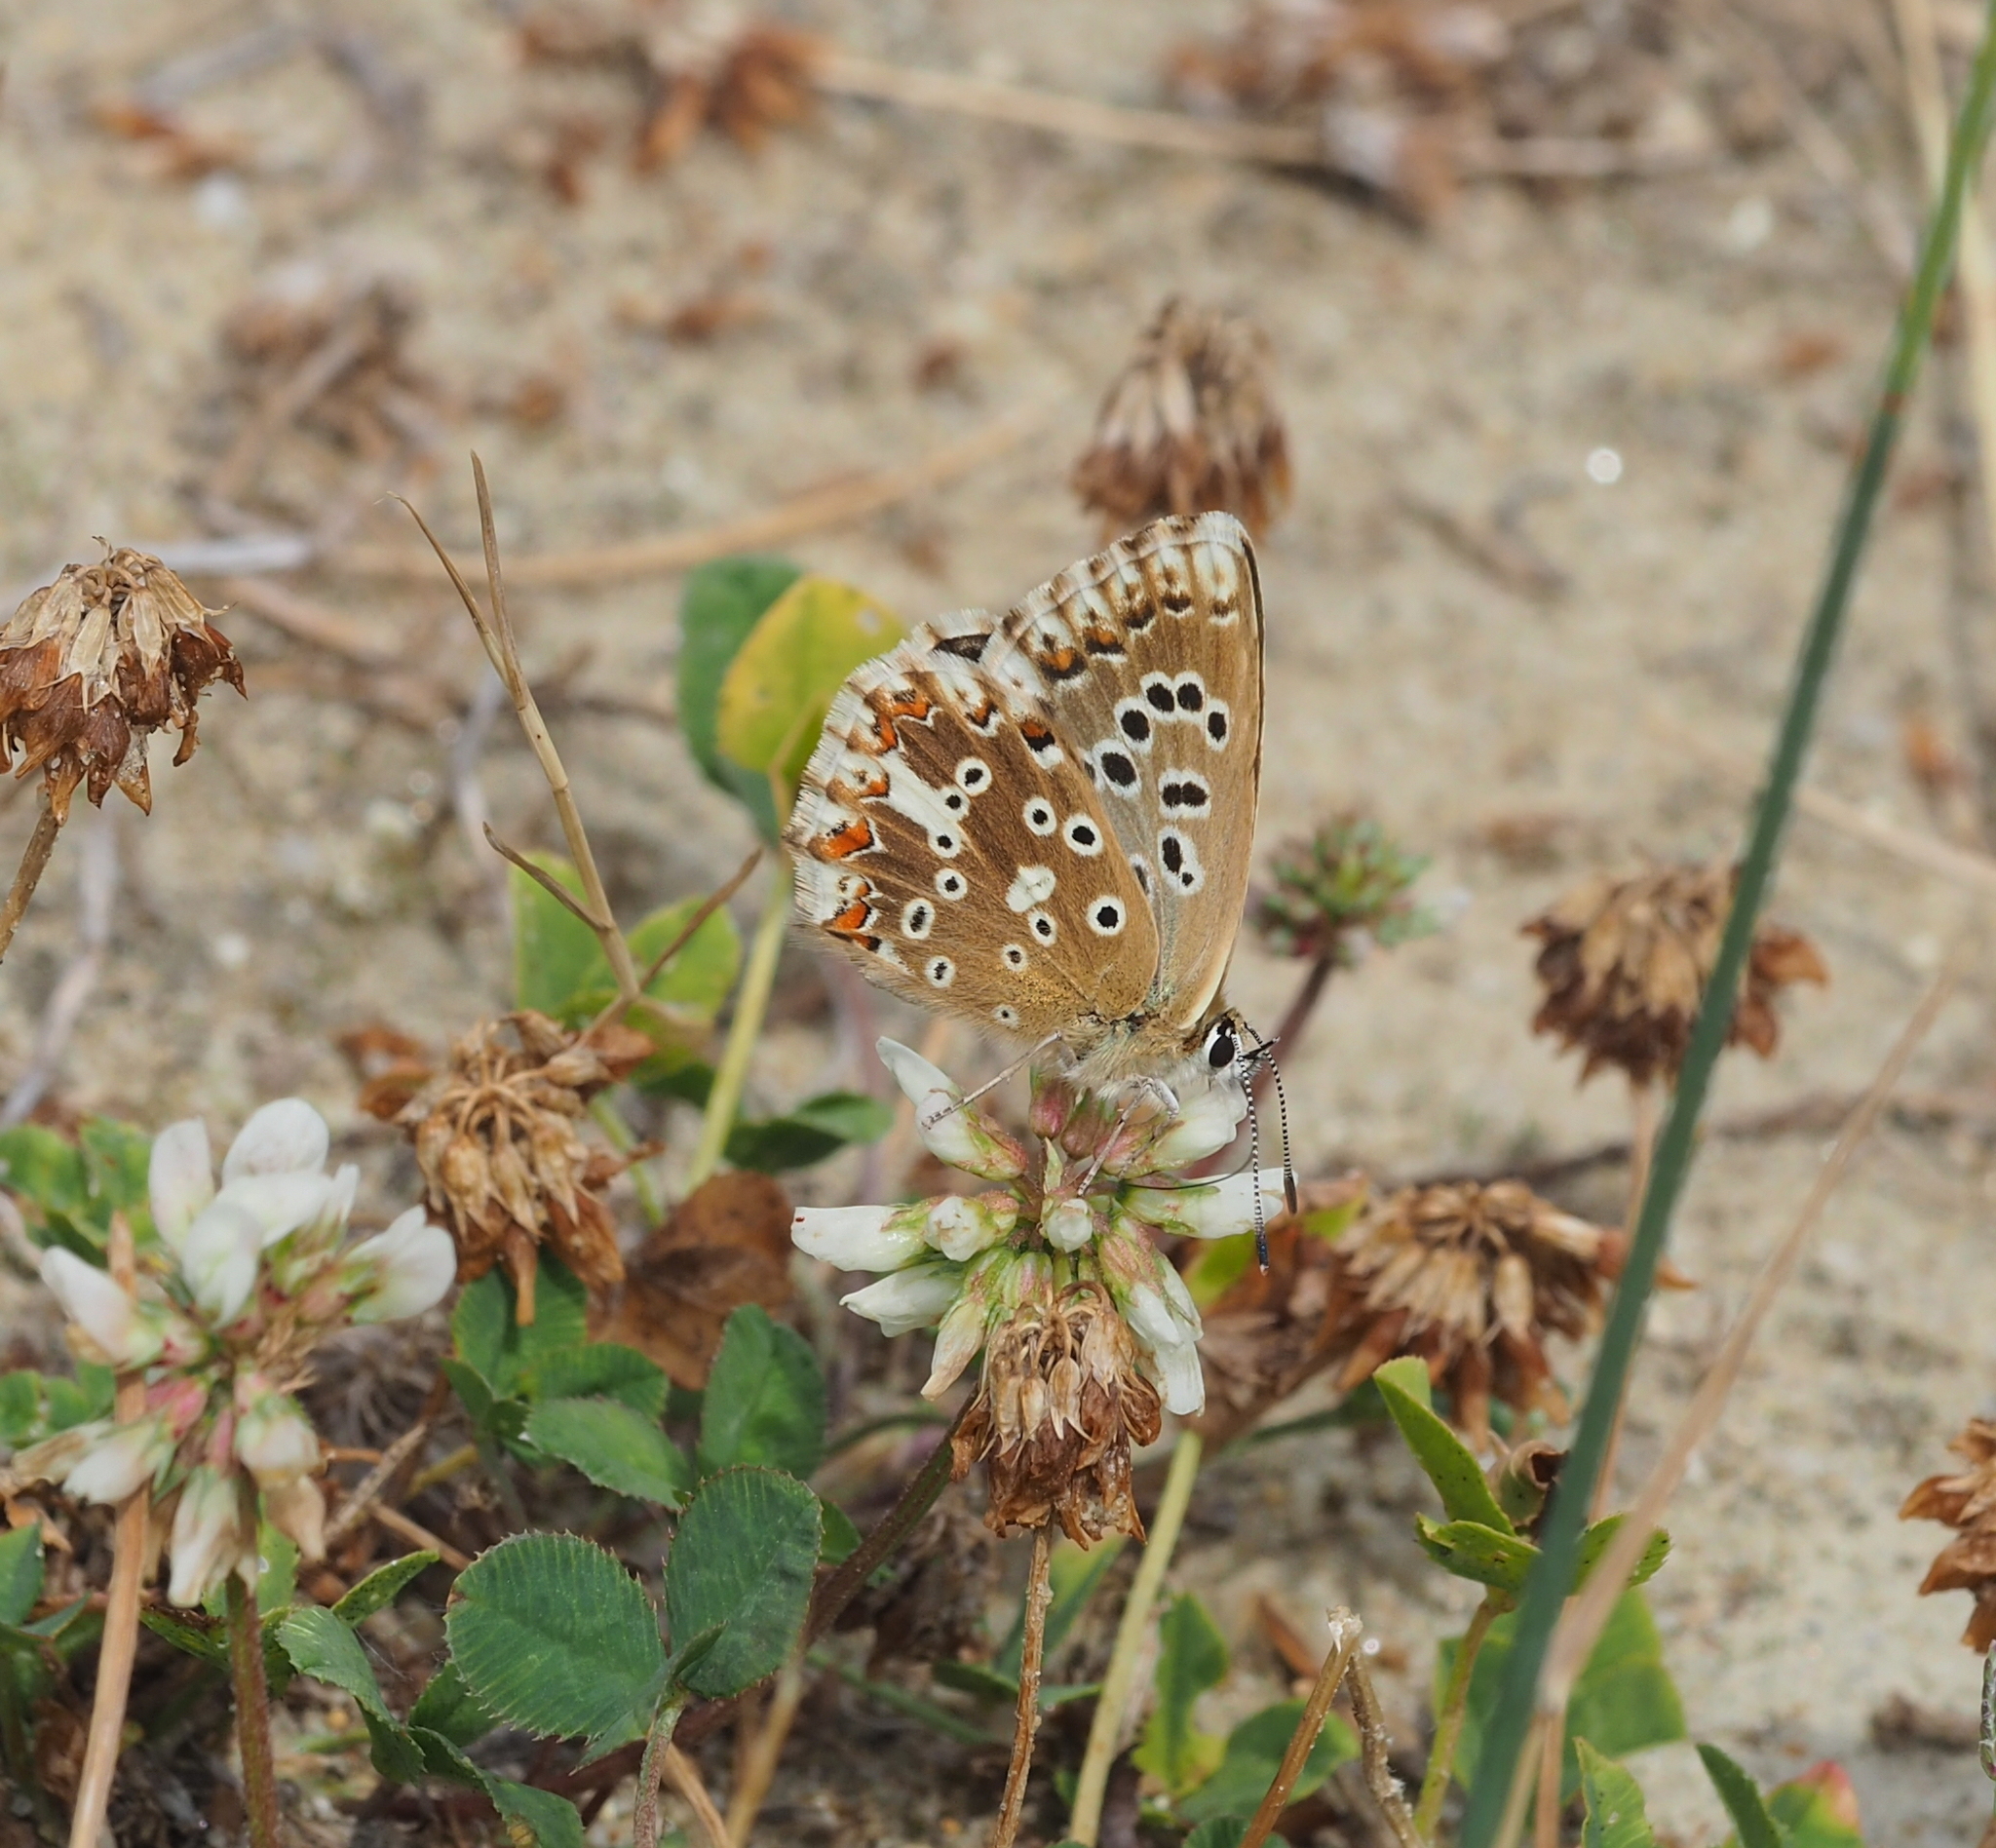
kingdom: Animalia
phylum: Arthropoda
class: Insecta
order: Lepidoptera
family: Lycaenidae
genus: Lysandra
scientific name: Lysandra coridon
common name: Chalkhill blue
